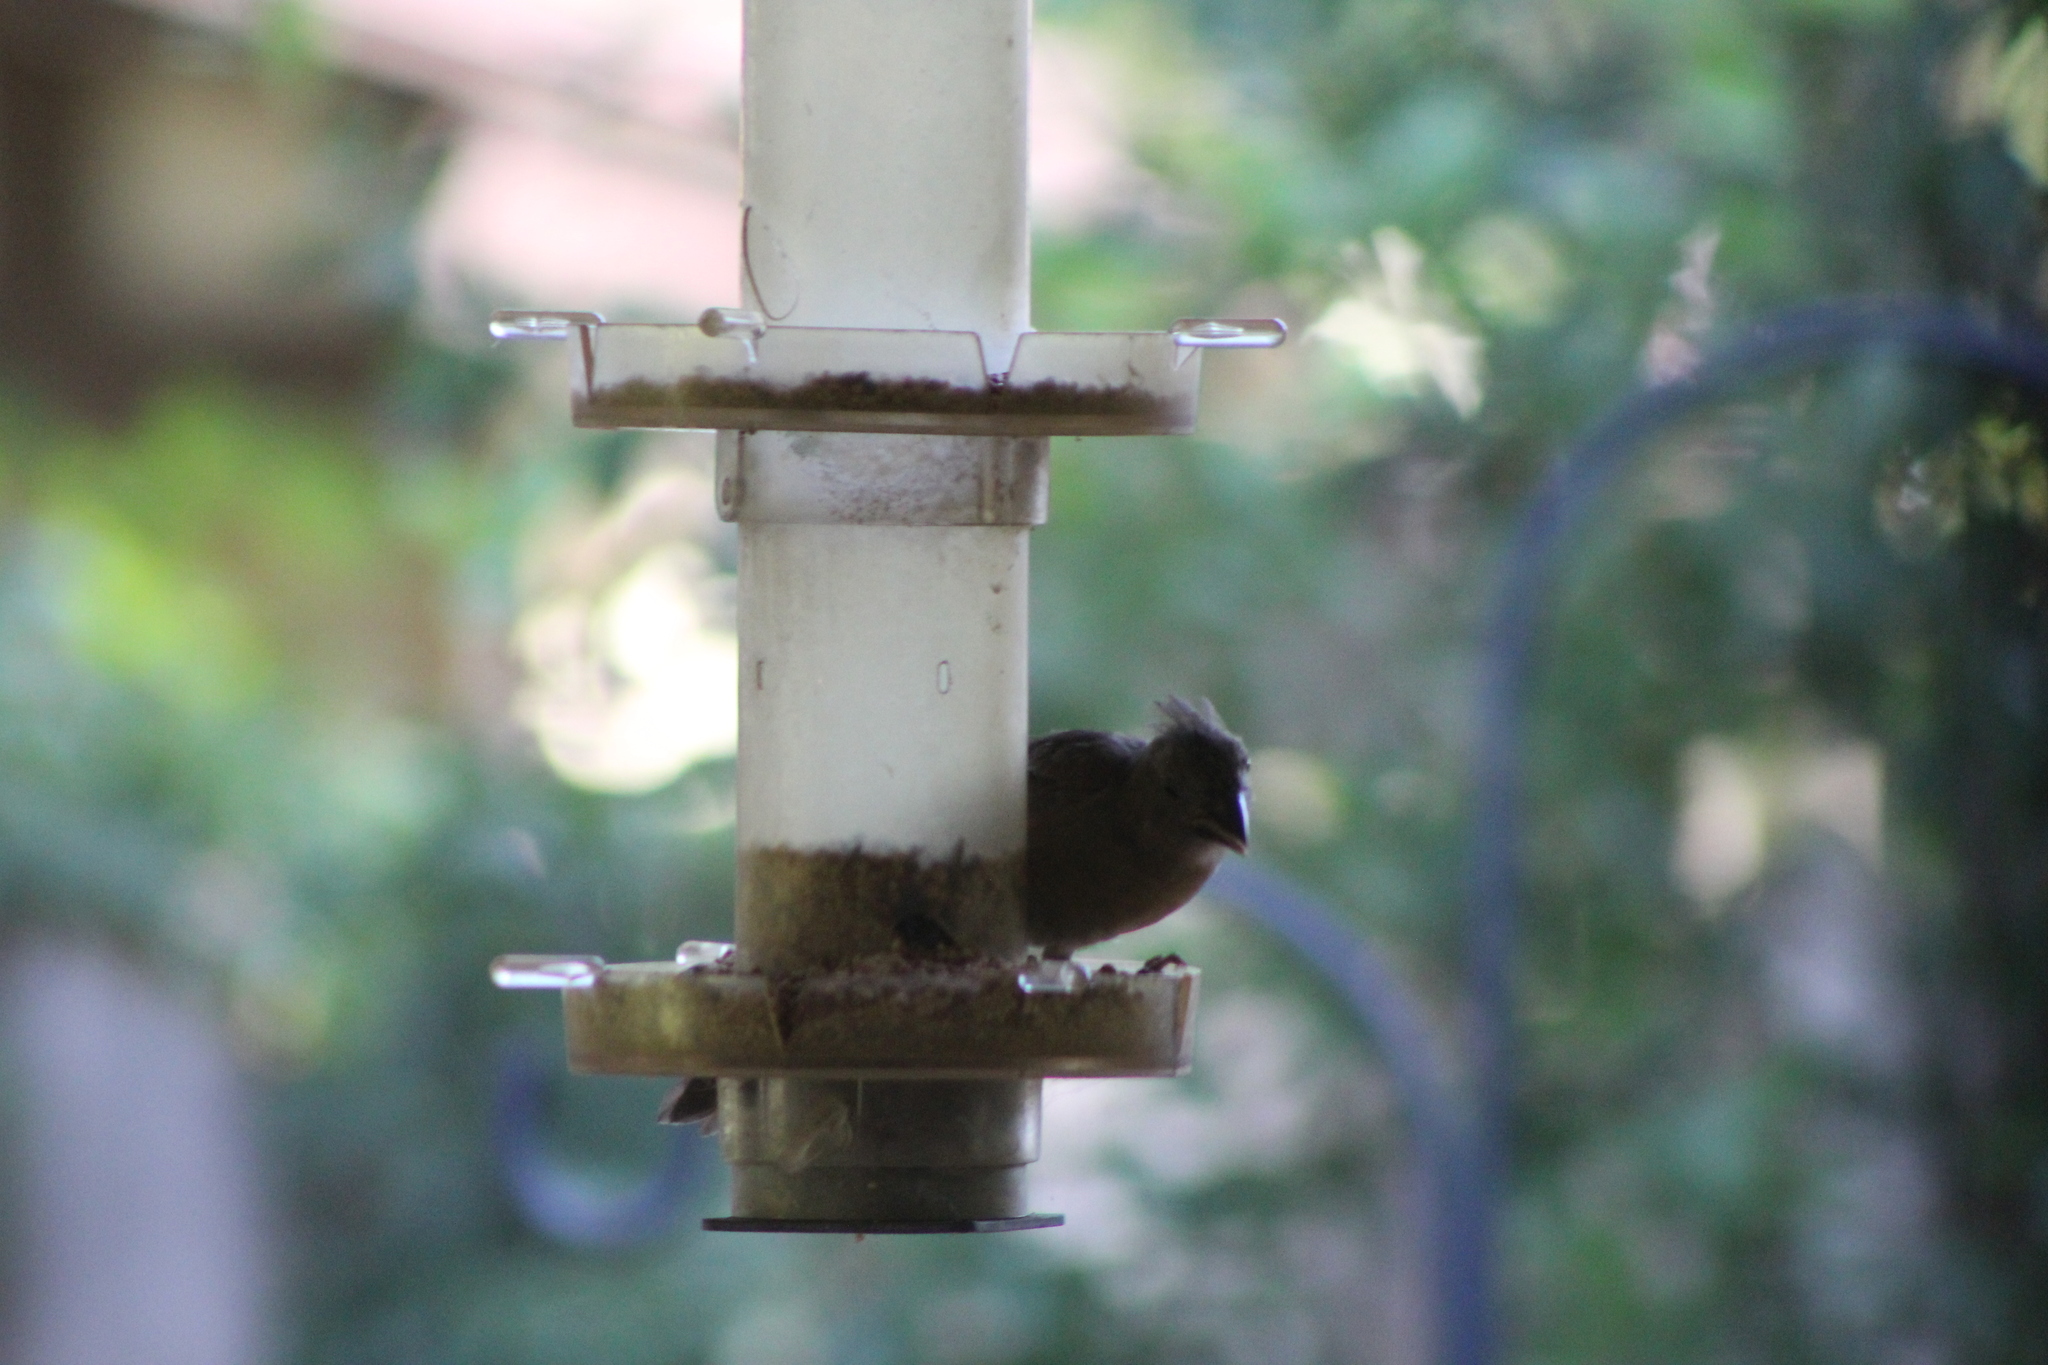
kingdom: Animalia
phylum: Chordata
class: Aves
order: Passeriformes
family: Cardinalidae
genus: Cardinalis
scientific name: Cardinalis cardinalis
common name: Northern cardinal
